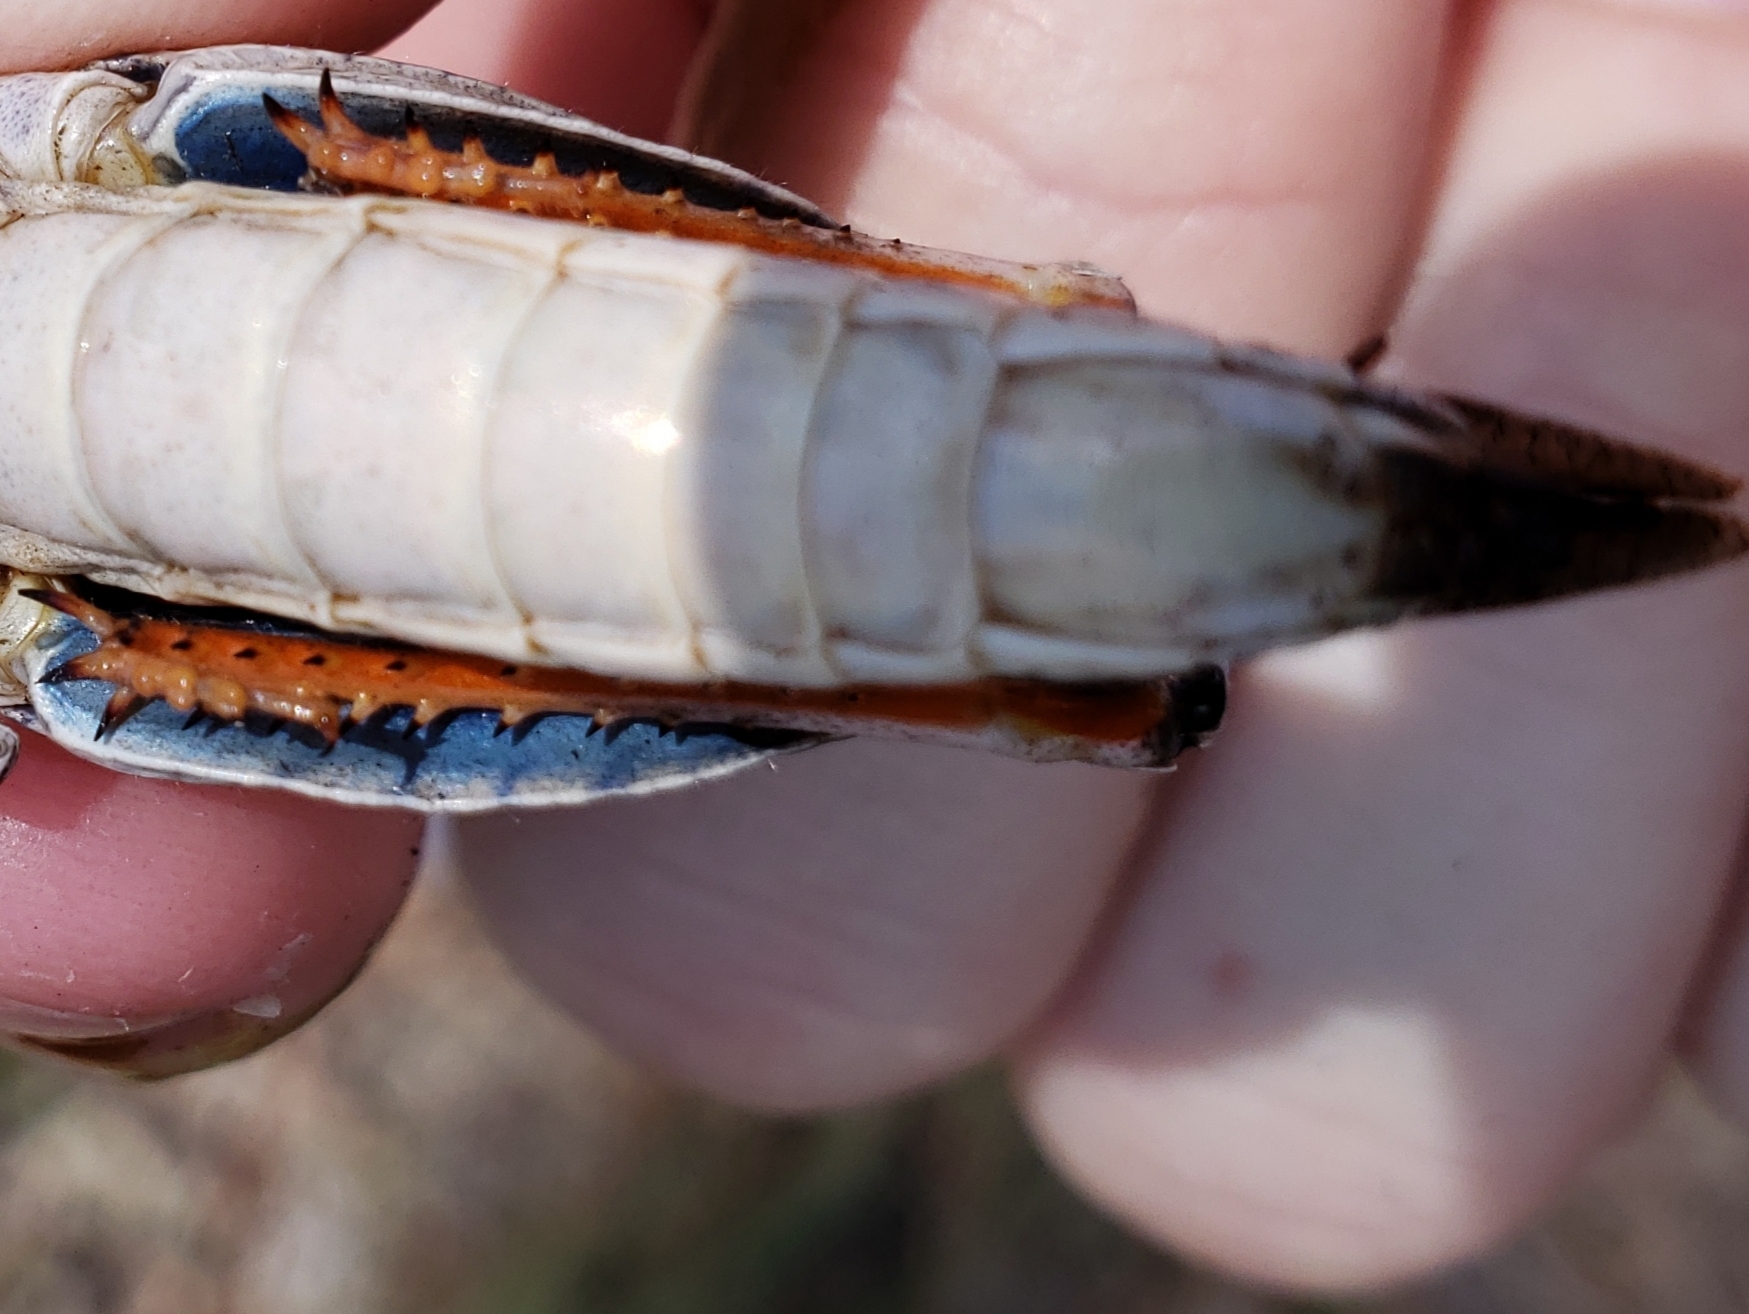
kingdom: Animalia
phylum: Arthropoda
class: Insecta
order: Orthoptera
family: Acrididae
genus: Pardalophora
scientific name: Pardalophora phoenicoptera
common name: Orange-winged grasshopper
